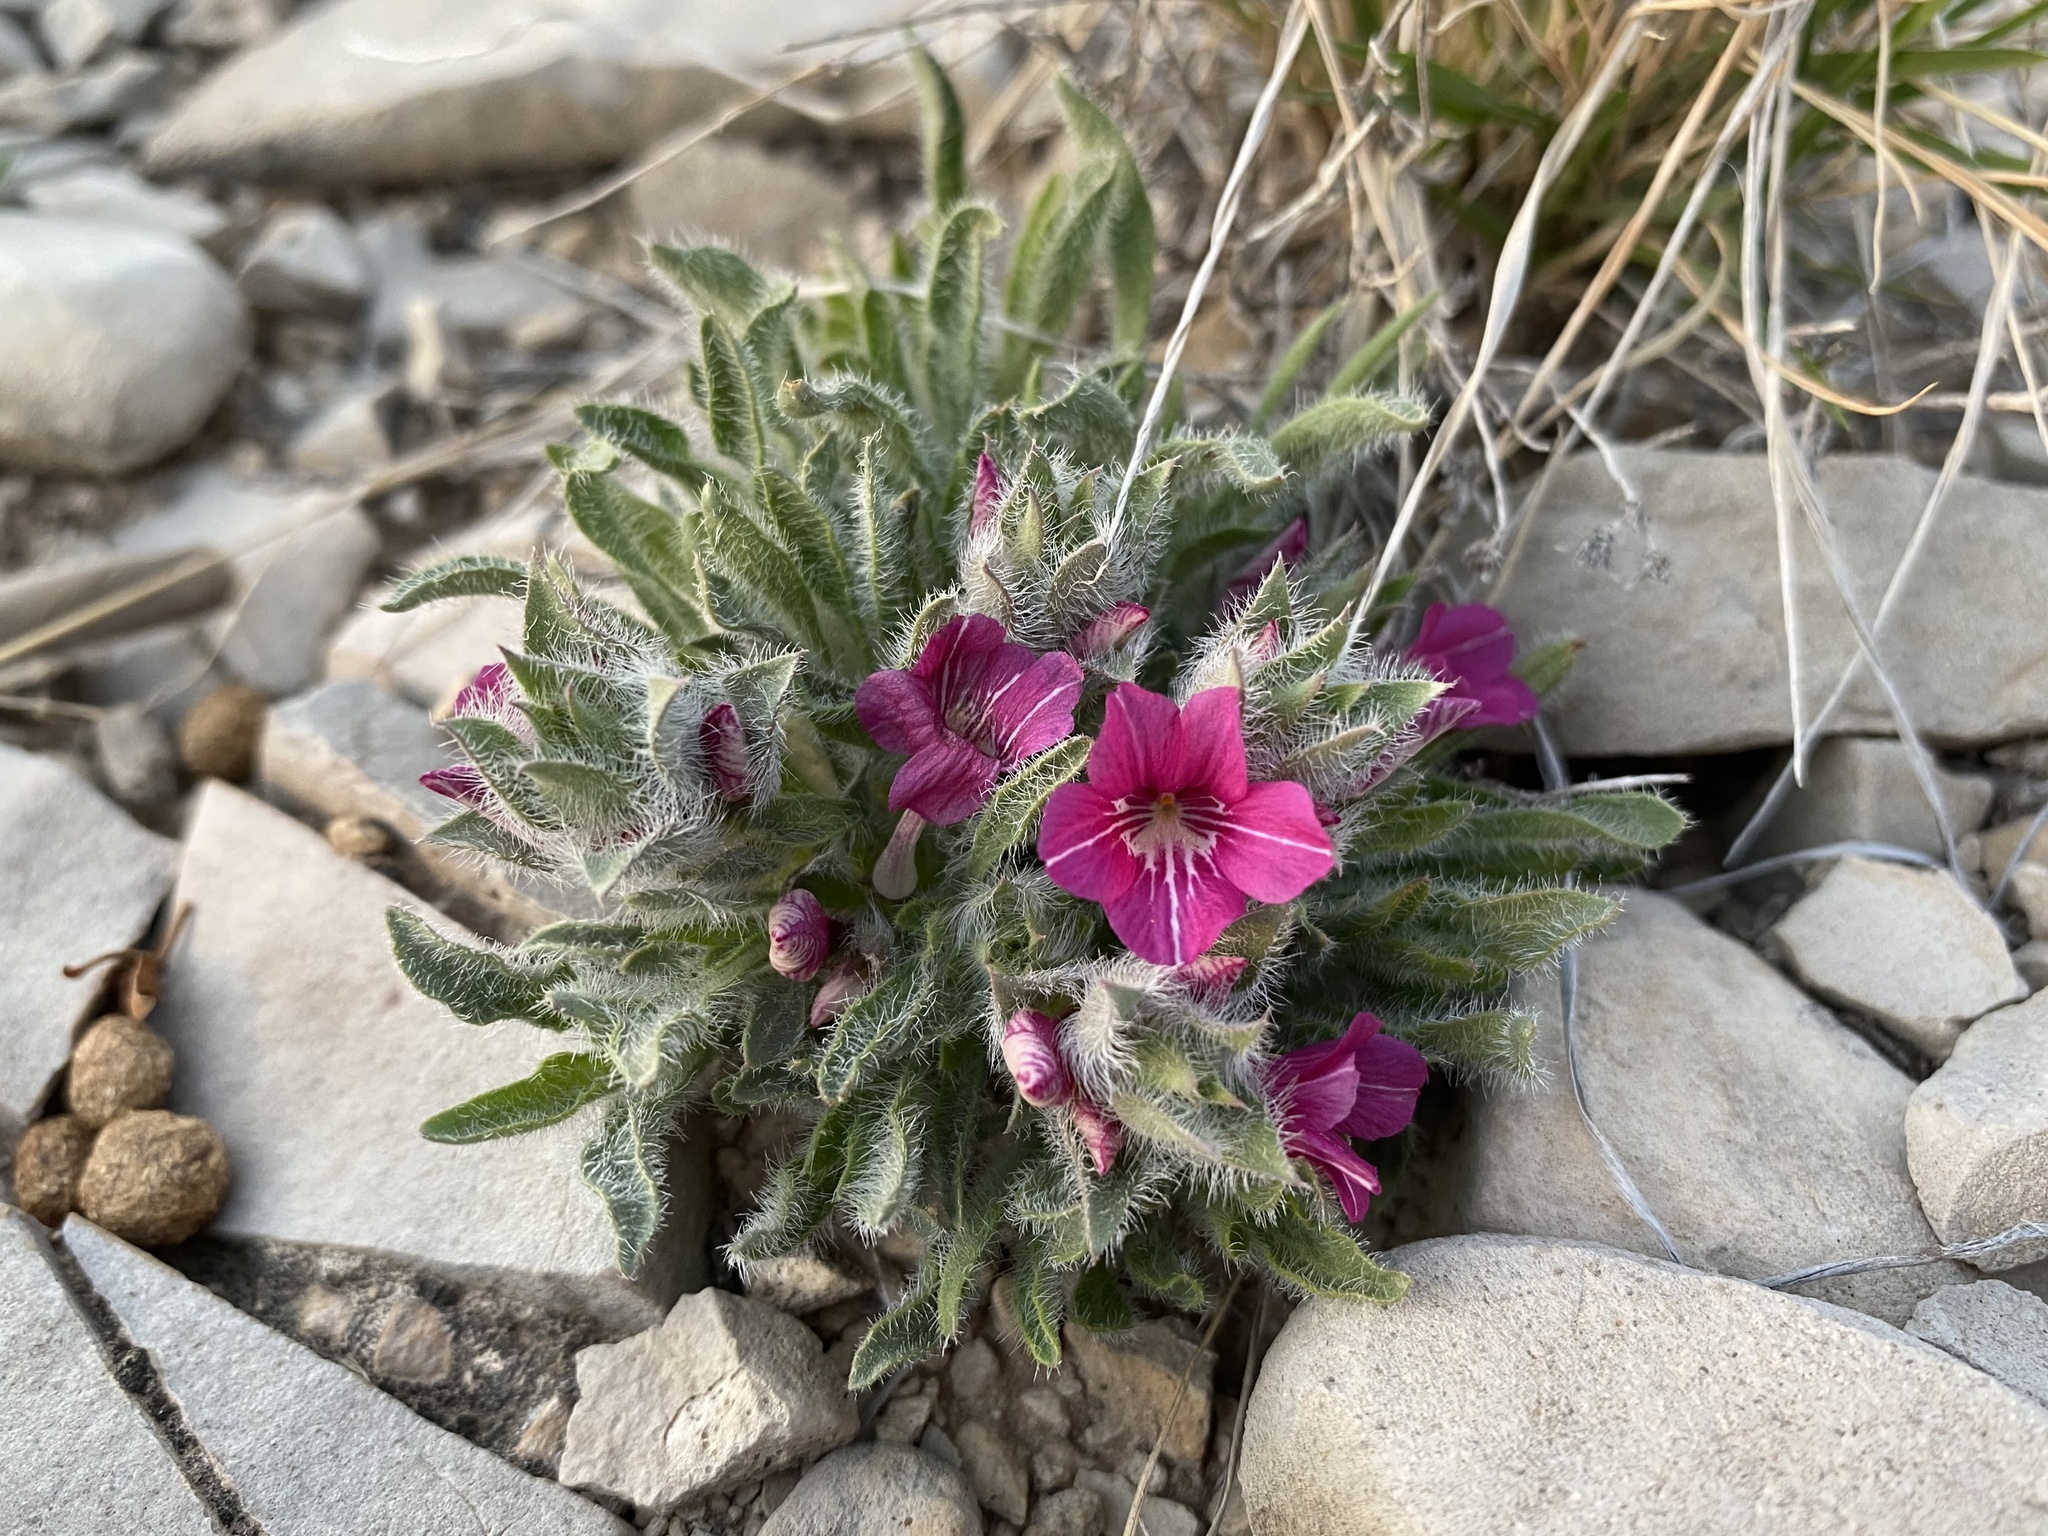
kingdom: Plantae
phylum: Tracheophyta
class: Magnoliopsida
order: Lamiales
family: Acanthaceae
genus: Stenandrium
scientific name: Stenandrium barbatum
